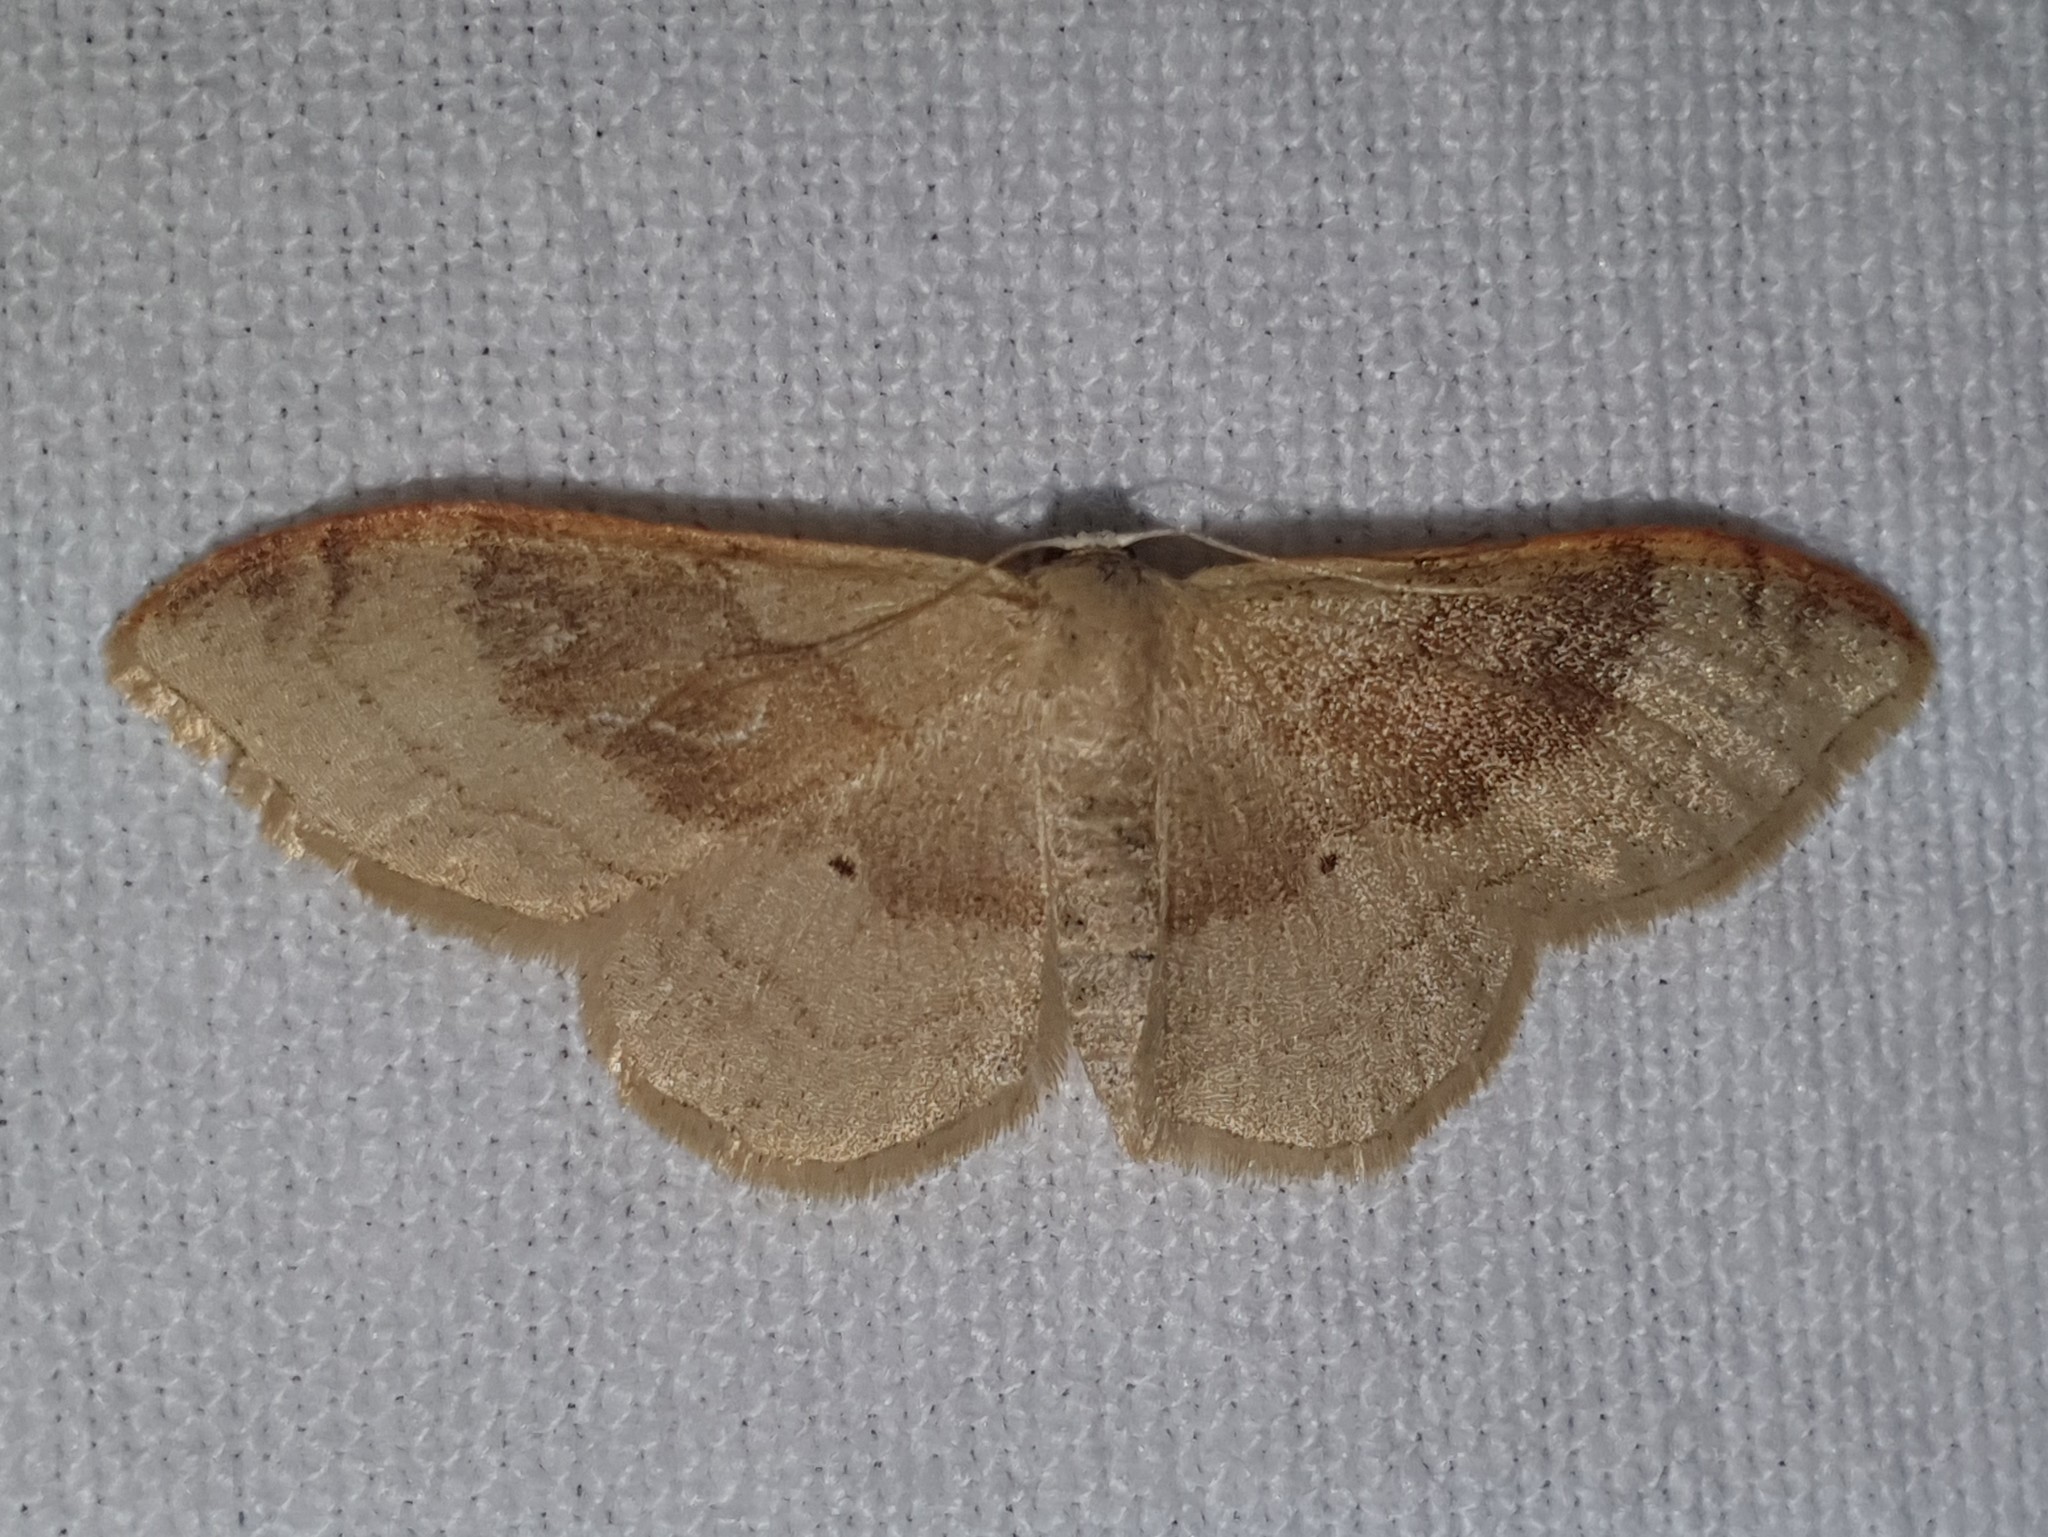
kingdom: Animalia
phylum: Arthropoda
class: Insecta
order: Lepidoptera
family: Geometridae
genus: Idaea
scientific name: Idaea degeneraria
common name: Portland ribbon wave
